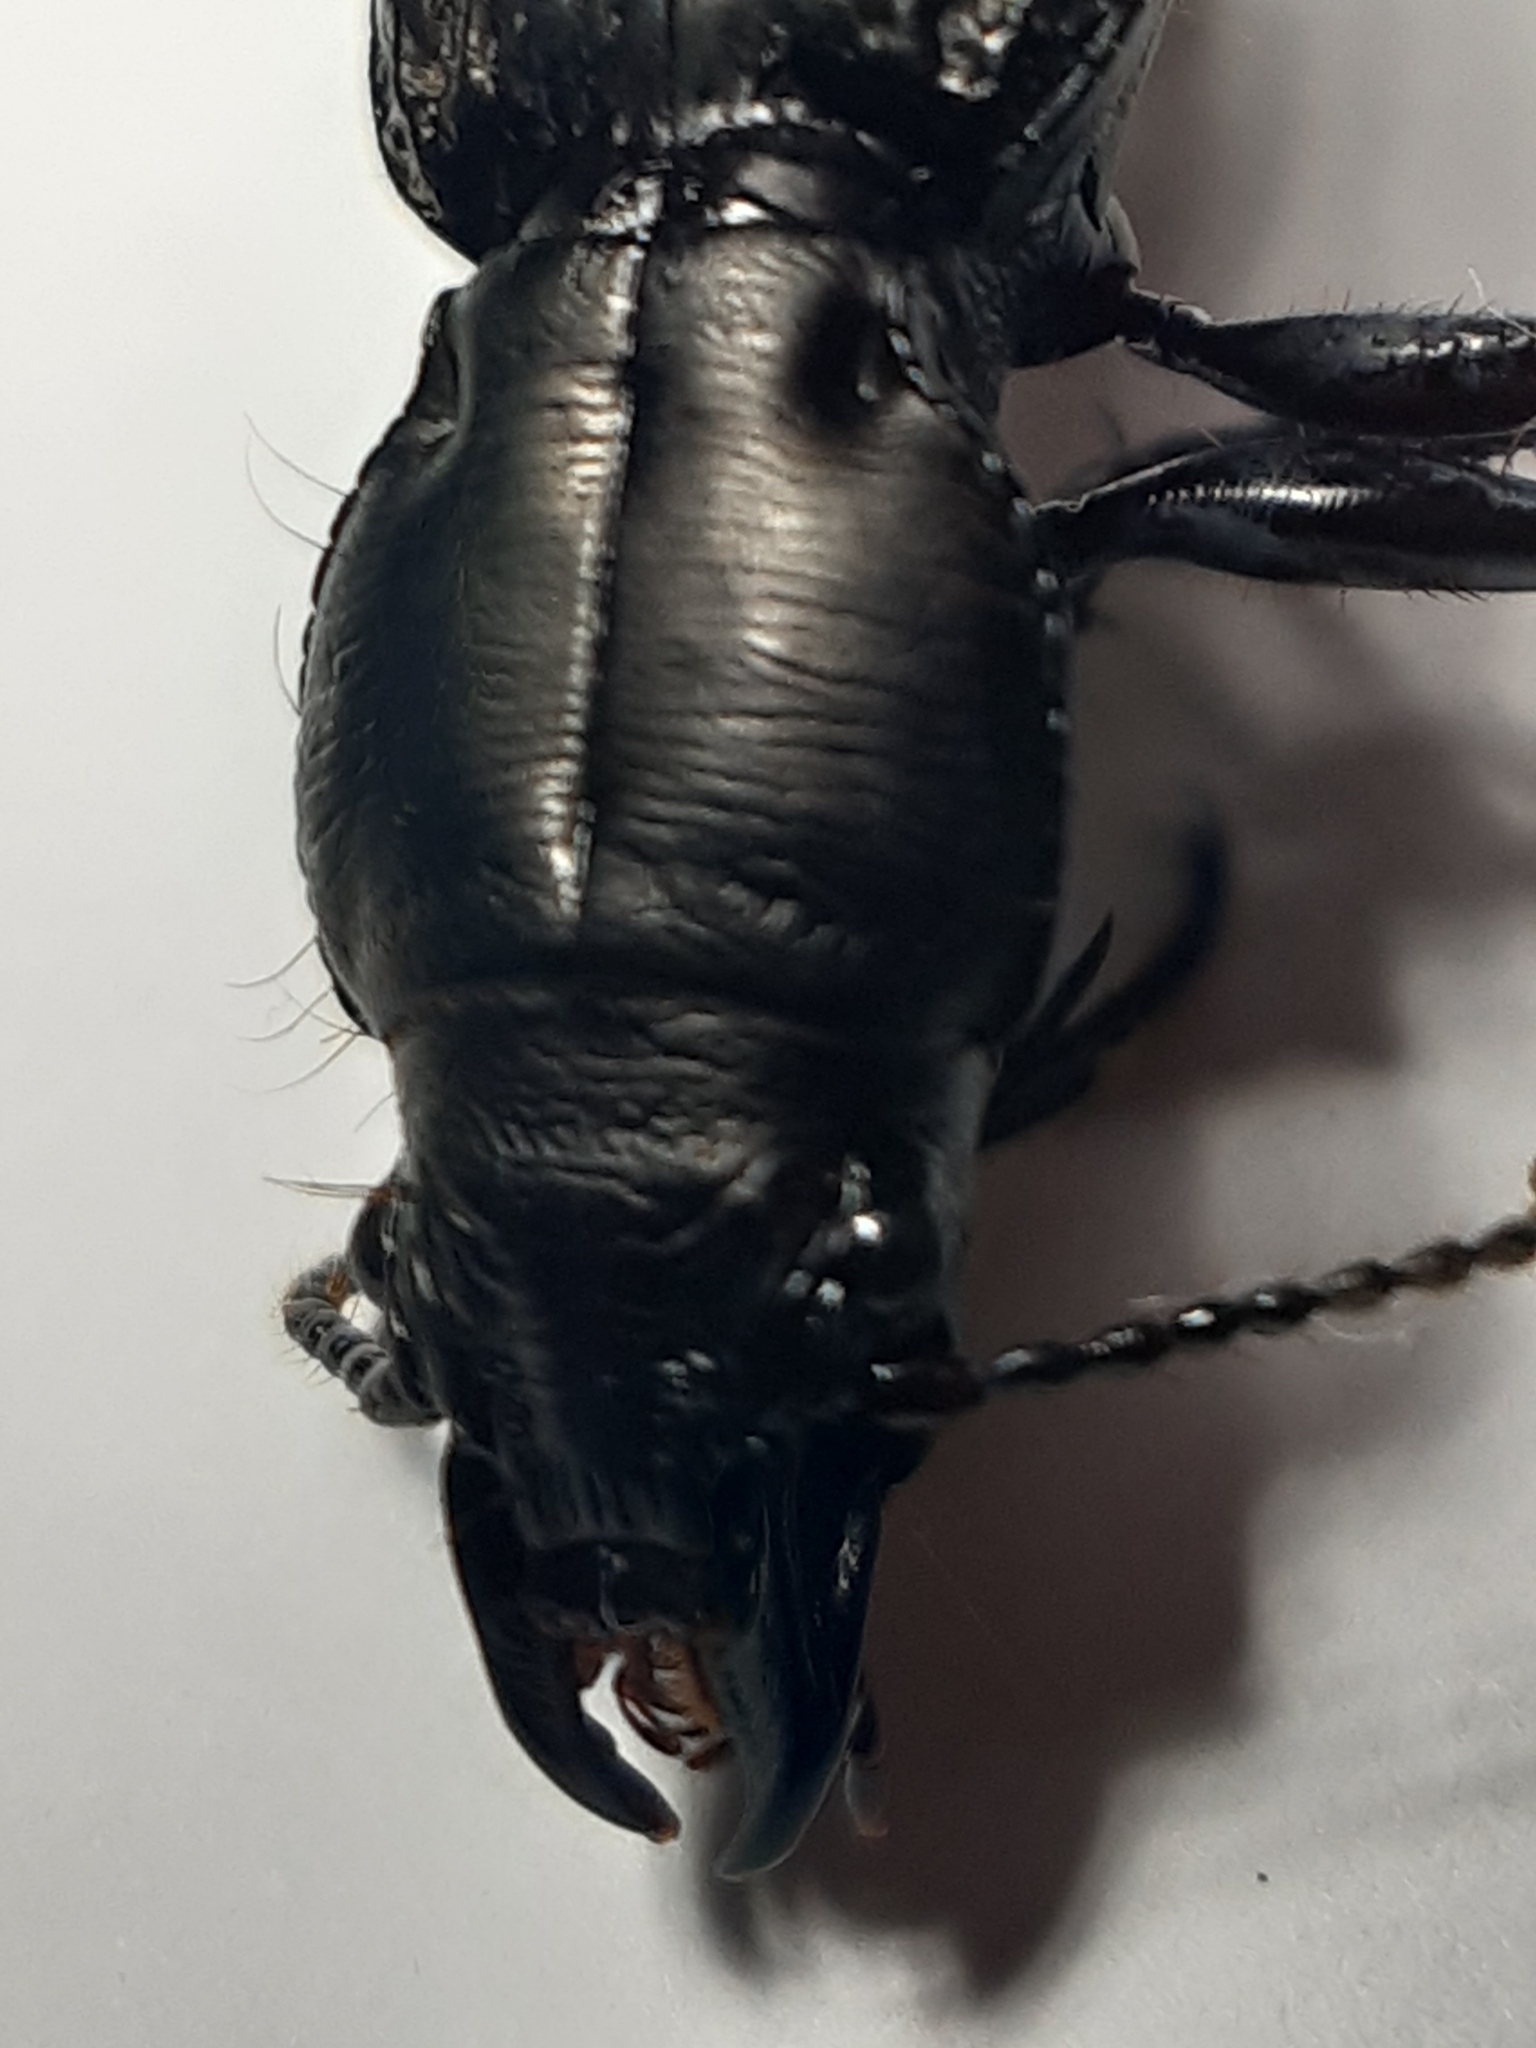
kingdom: Animalia
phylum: Arthropoda
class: Insecta
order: Coleoptera
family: Carabidae
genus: Mecodema
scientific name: Mecodema crenicolle
